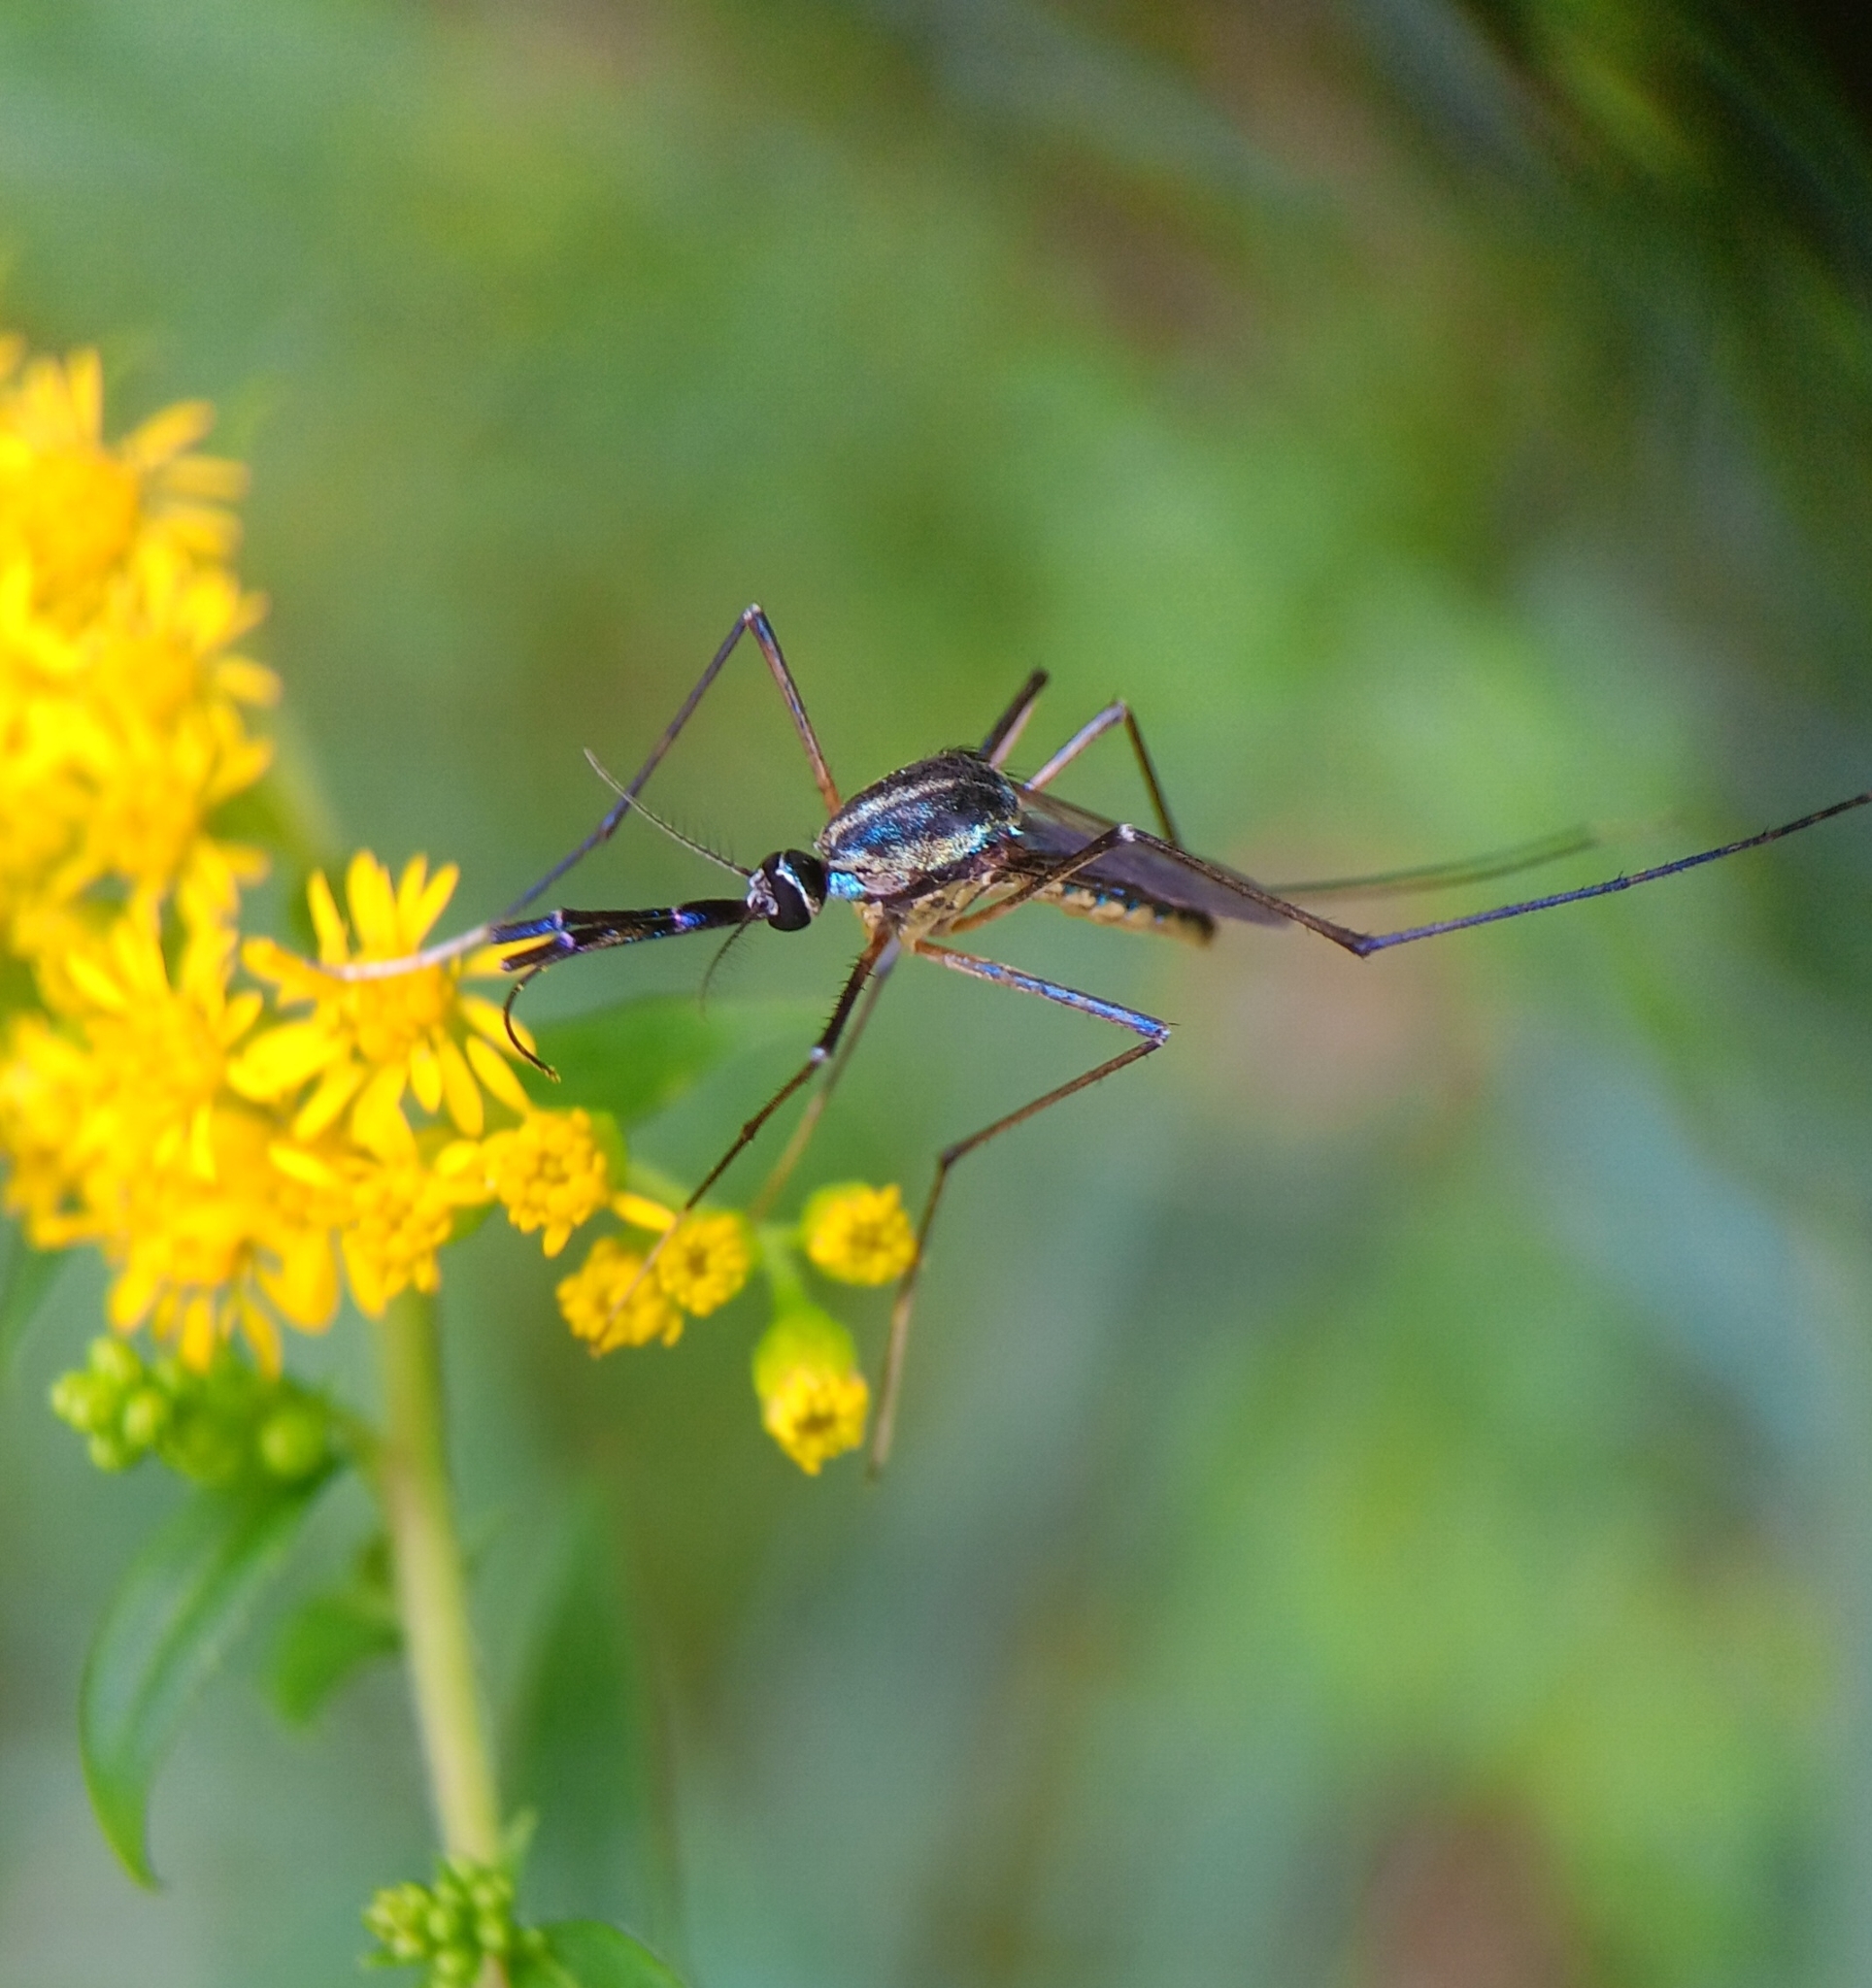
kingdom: Animalia
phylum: Arthropoda
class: Insecta
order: Diptera
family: Culicidae
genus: Toxorhynchites
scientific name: Toxorhynchites rutilus
